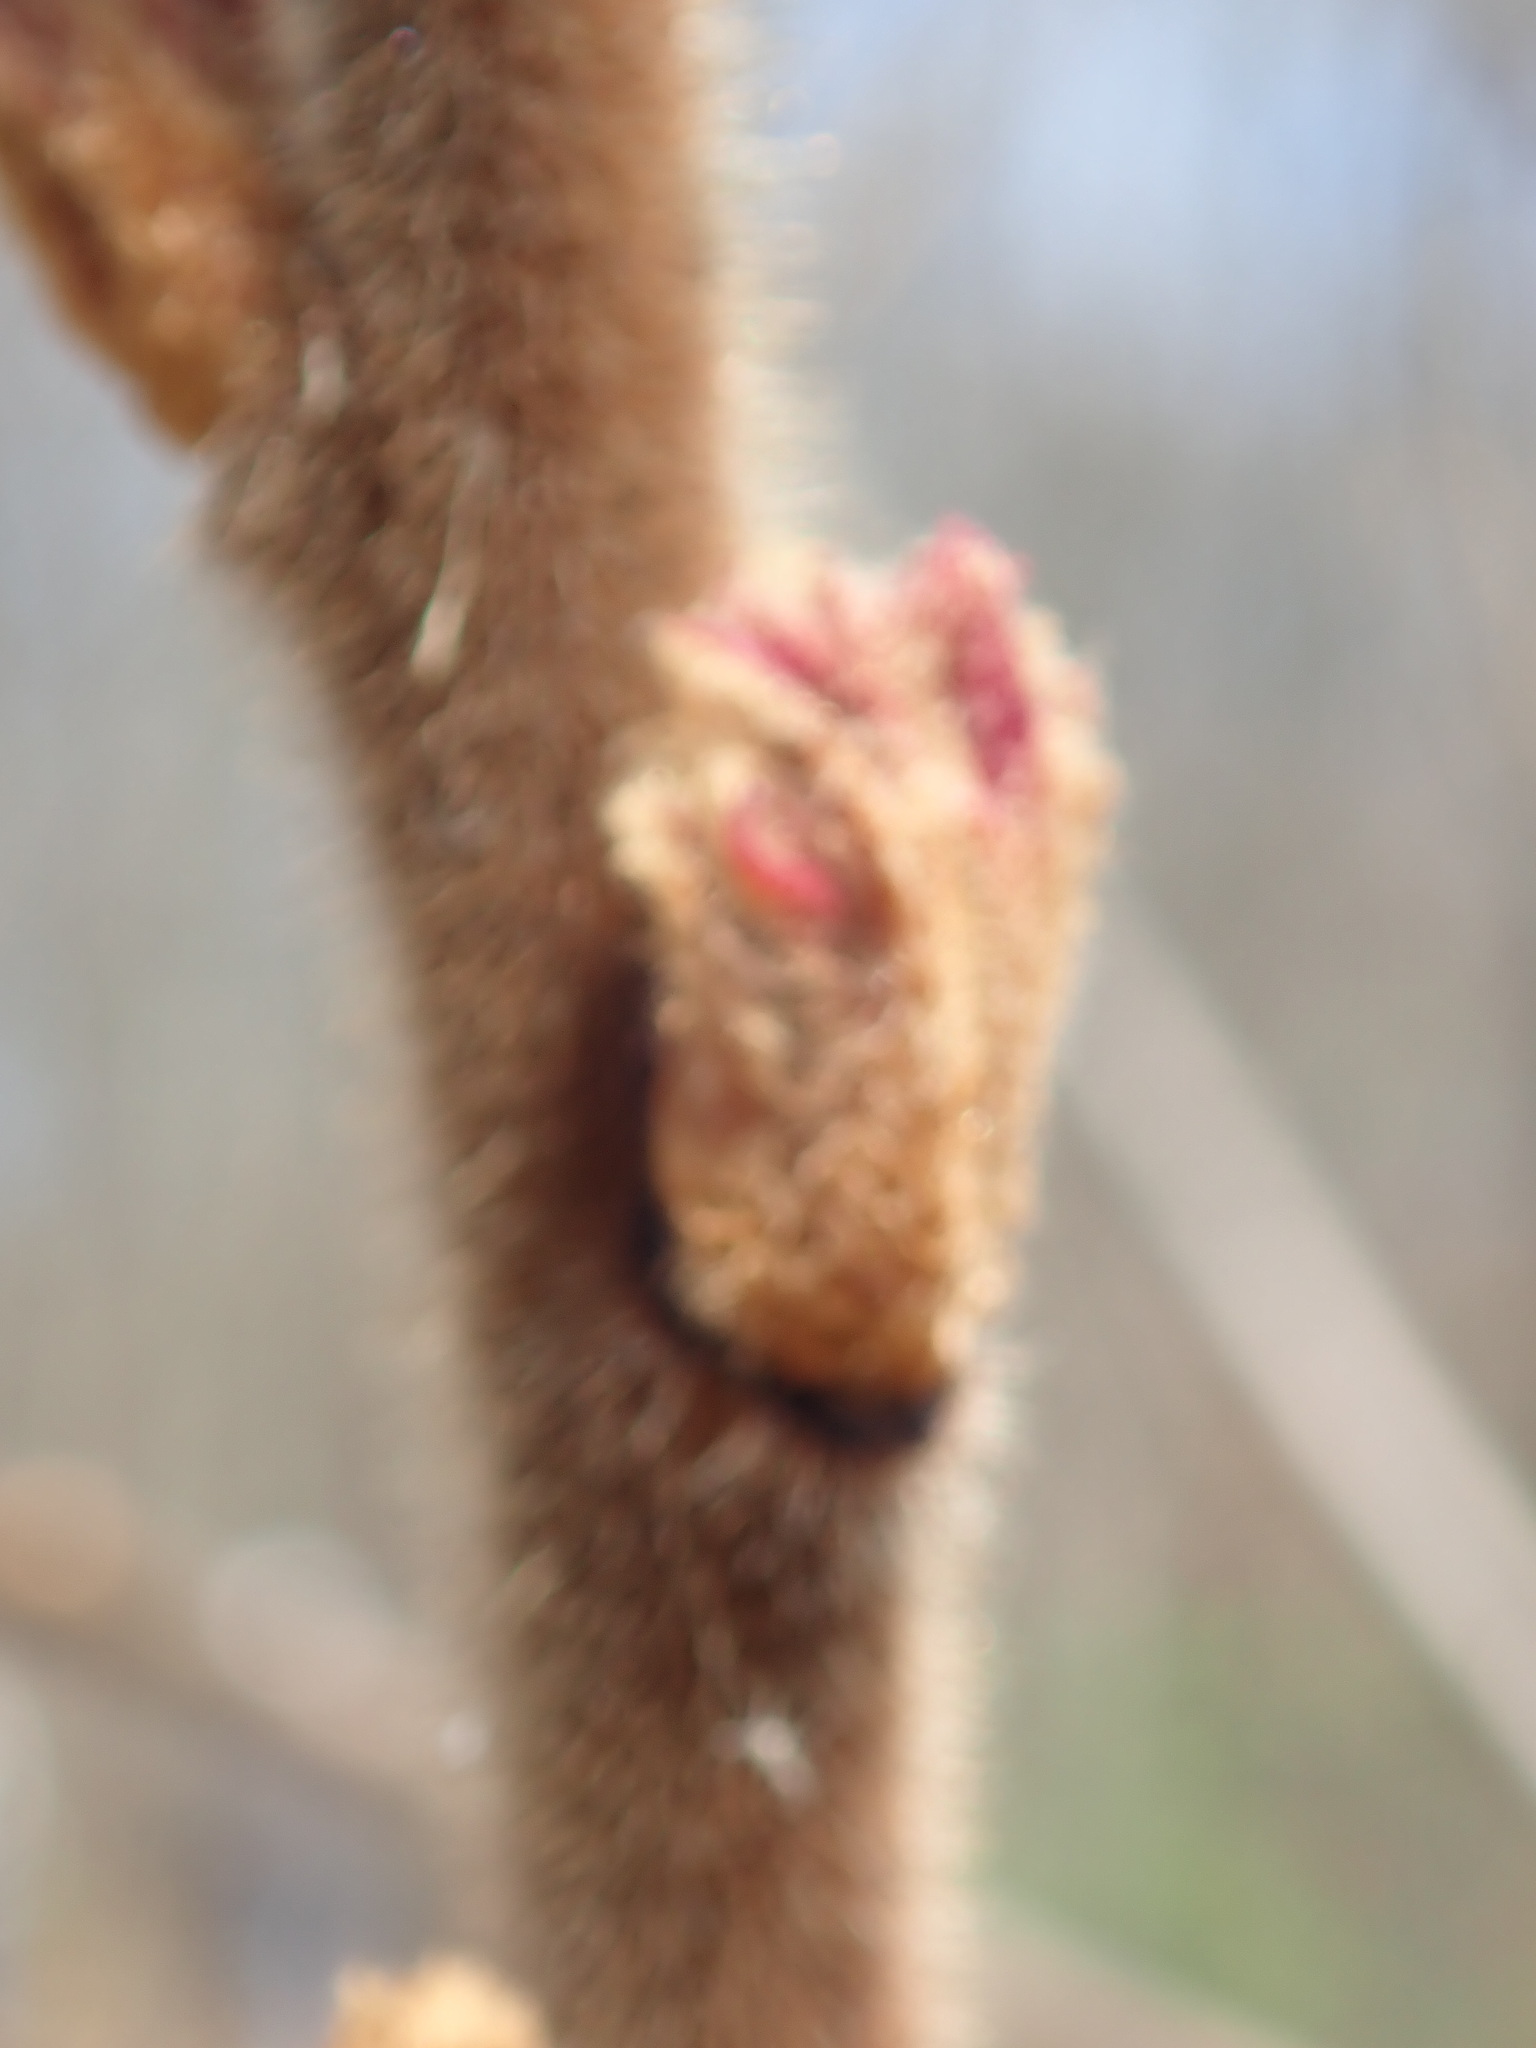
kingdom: Plantae
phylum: Tracheophyta
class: Magnoliopsida
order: Sapindales
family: Anacardiaceae
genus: Rhus
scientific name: Rhus typhina
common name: Staghorn sumac
